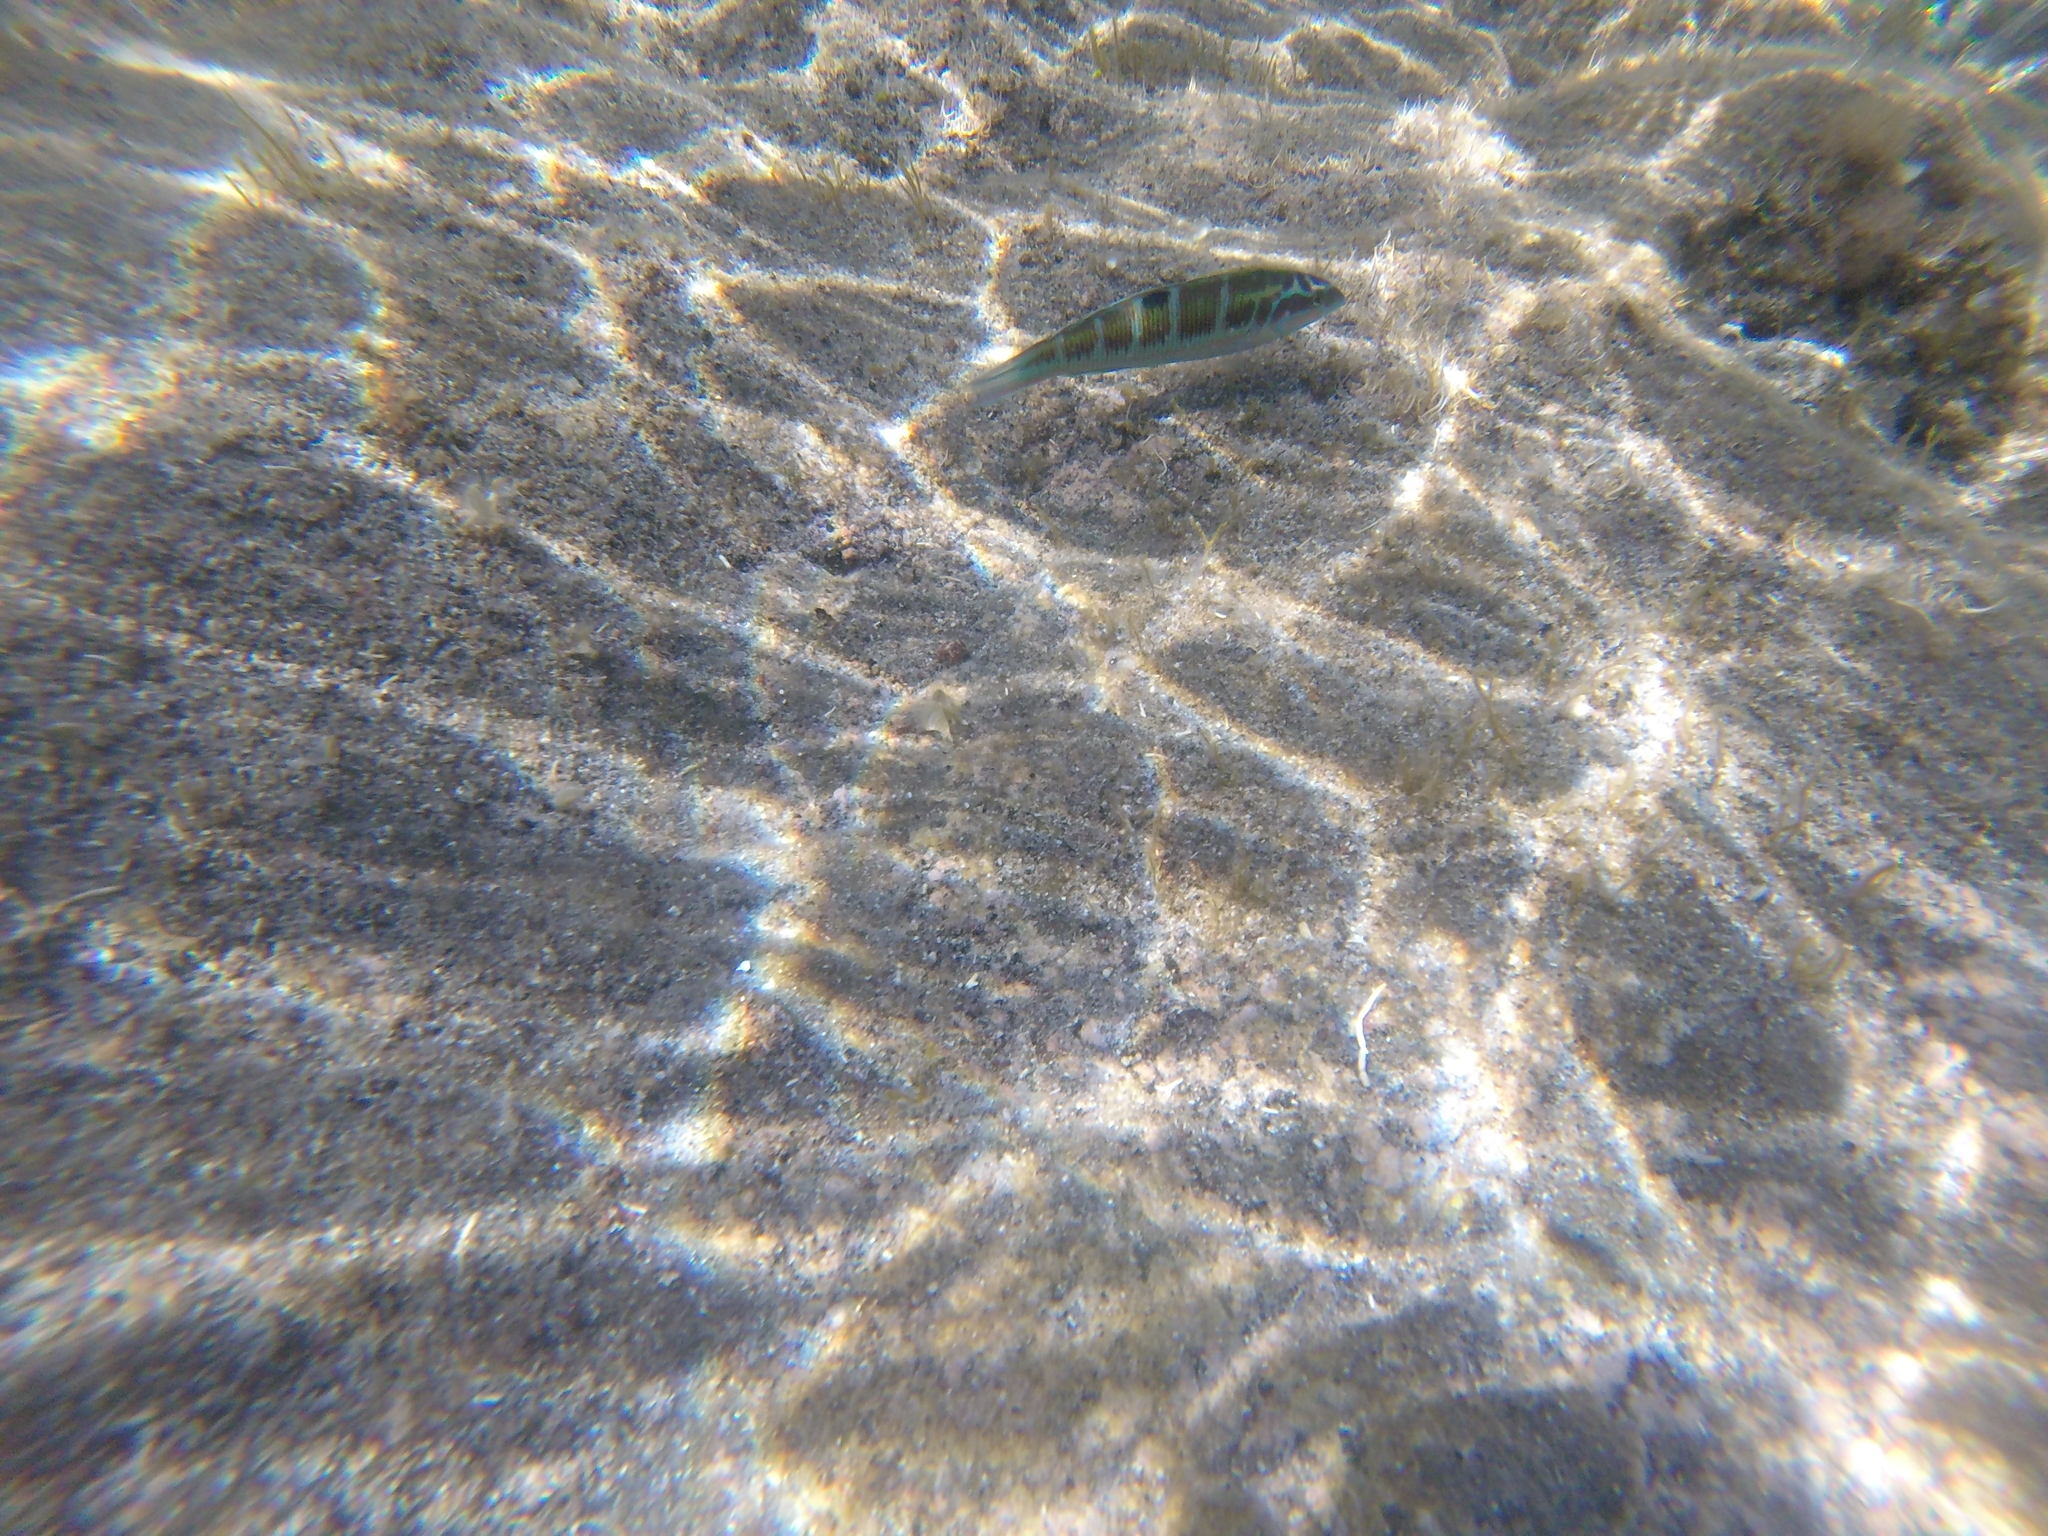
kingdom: Animalia
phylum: Chordata
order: Perciformes
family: Labridae
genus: Thalassoma
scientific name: Thalassoma pavo
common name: Ornate wrasse
